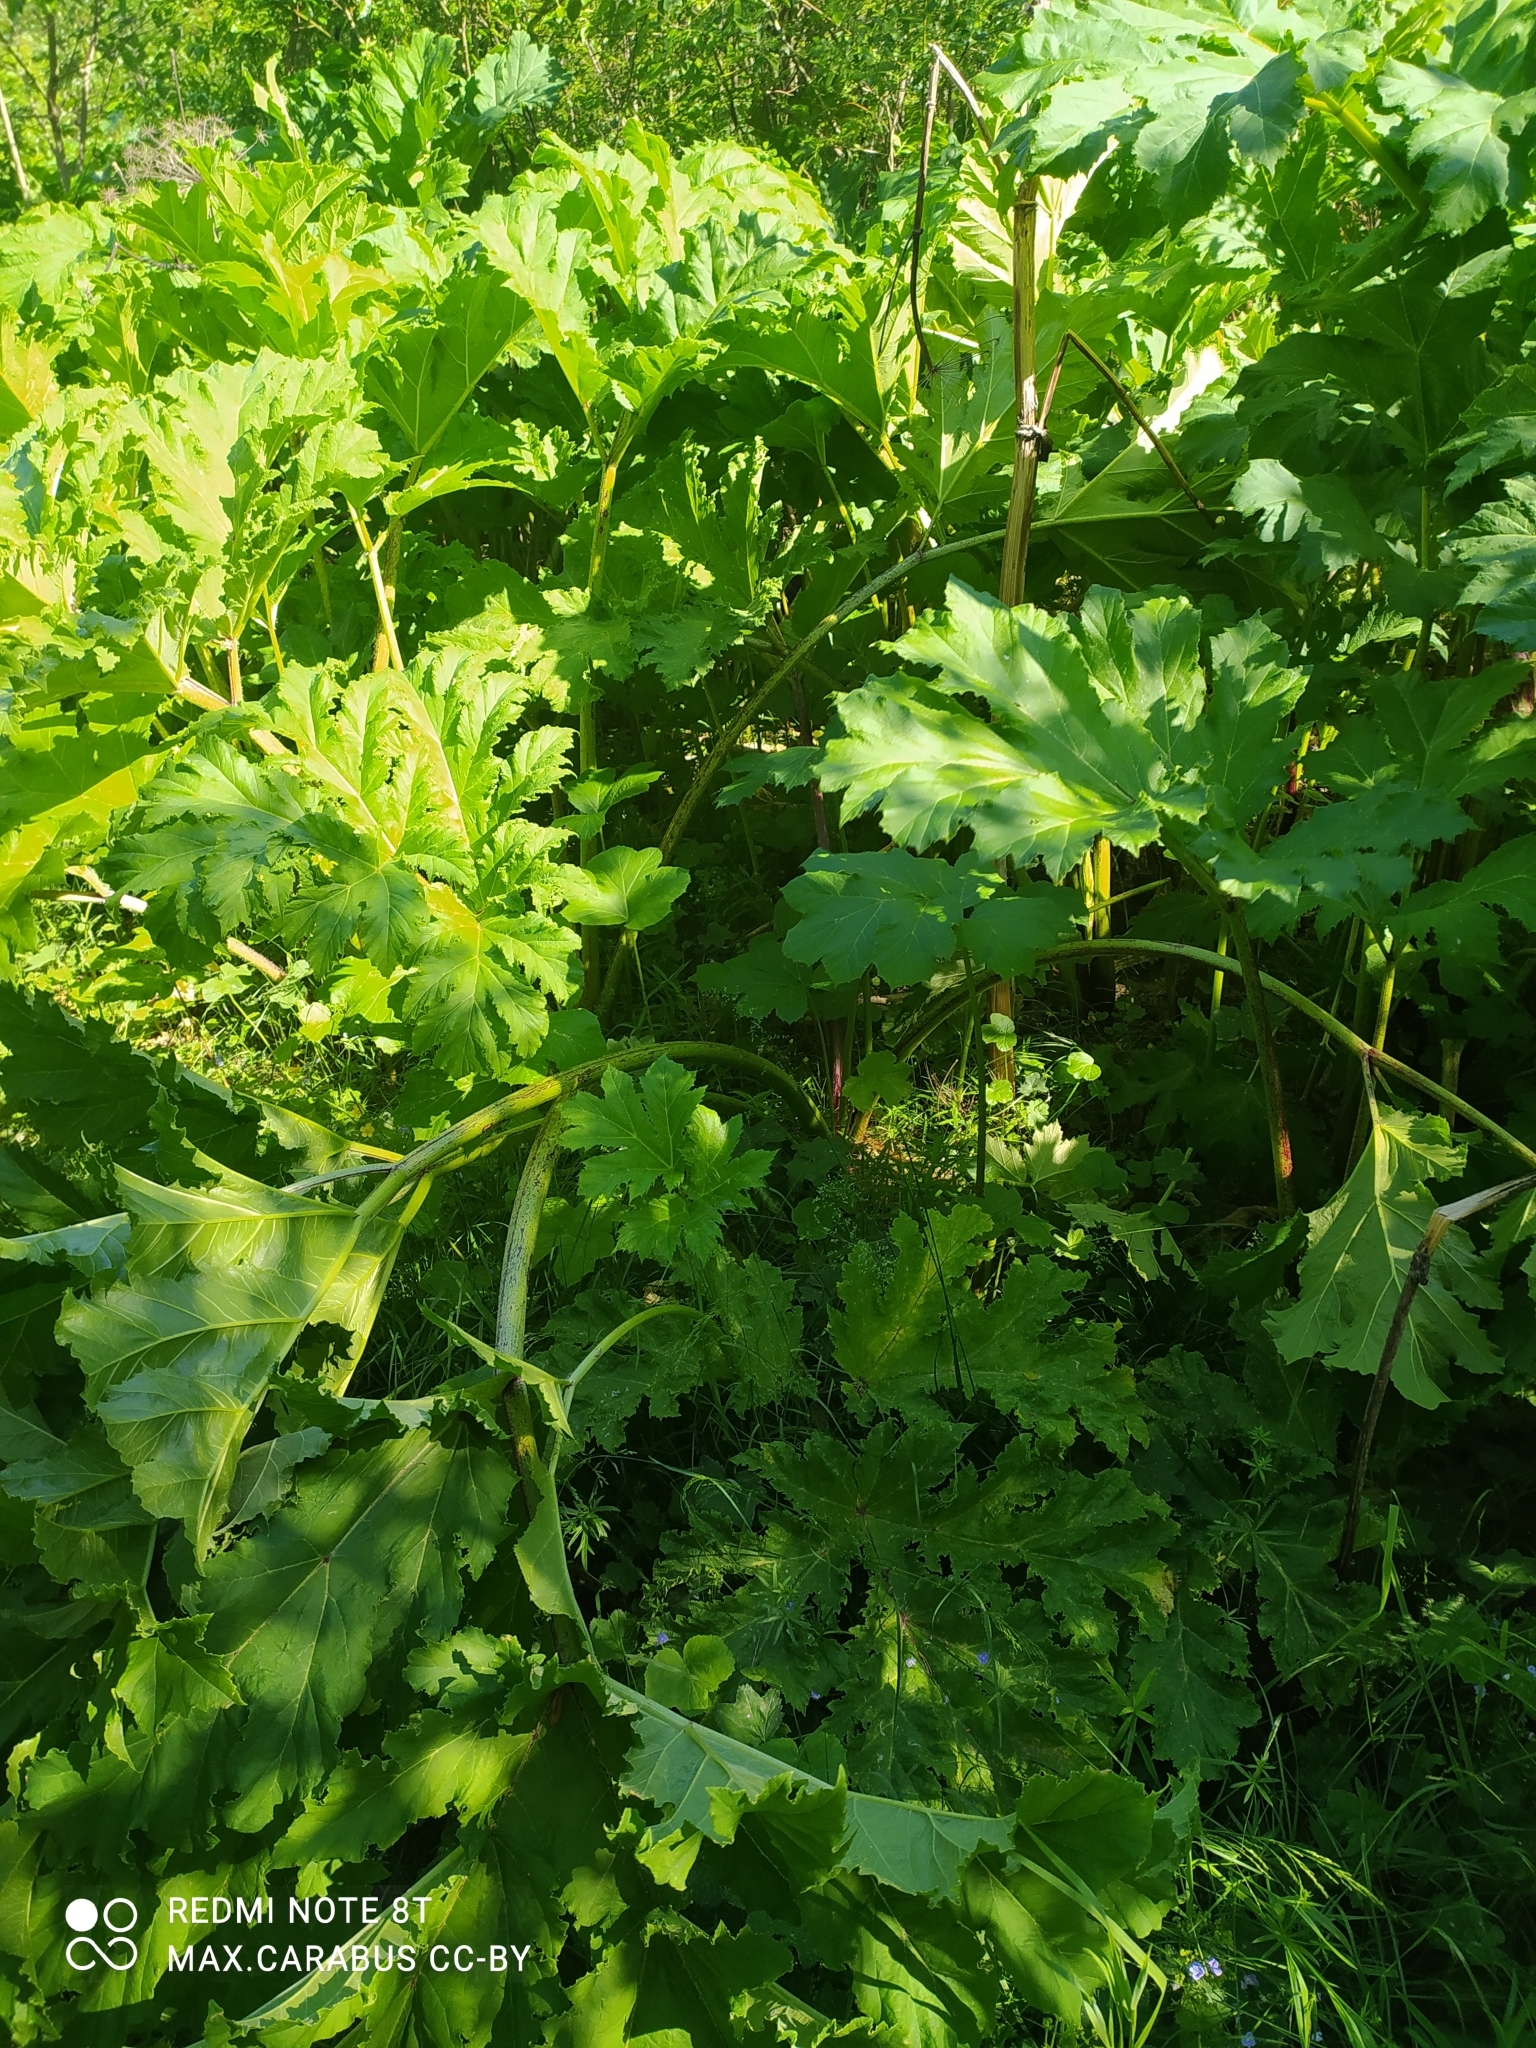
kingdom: Plantae
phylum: Tracheophyta
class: Magnoliopsida
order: Apiales
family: Apiaceae
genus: Heracleum
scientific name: Heracleum sosnowskyi
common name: Sosnowsky's hogweed
